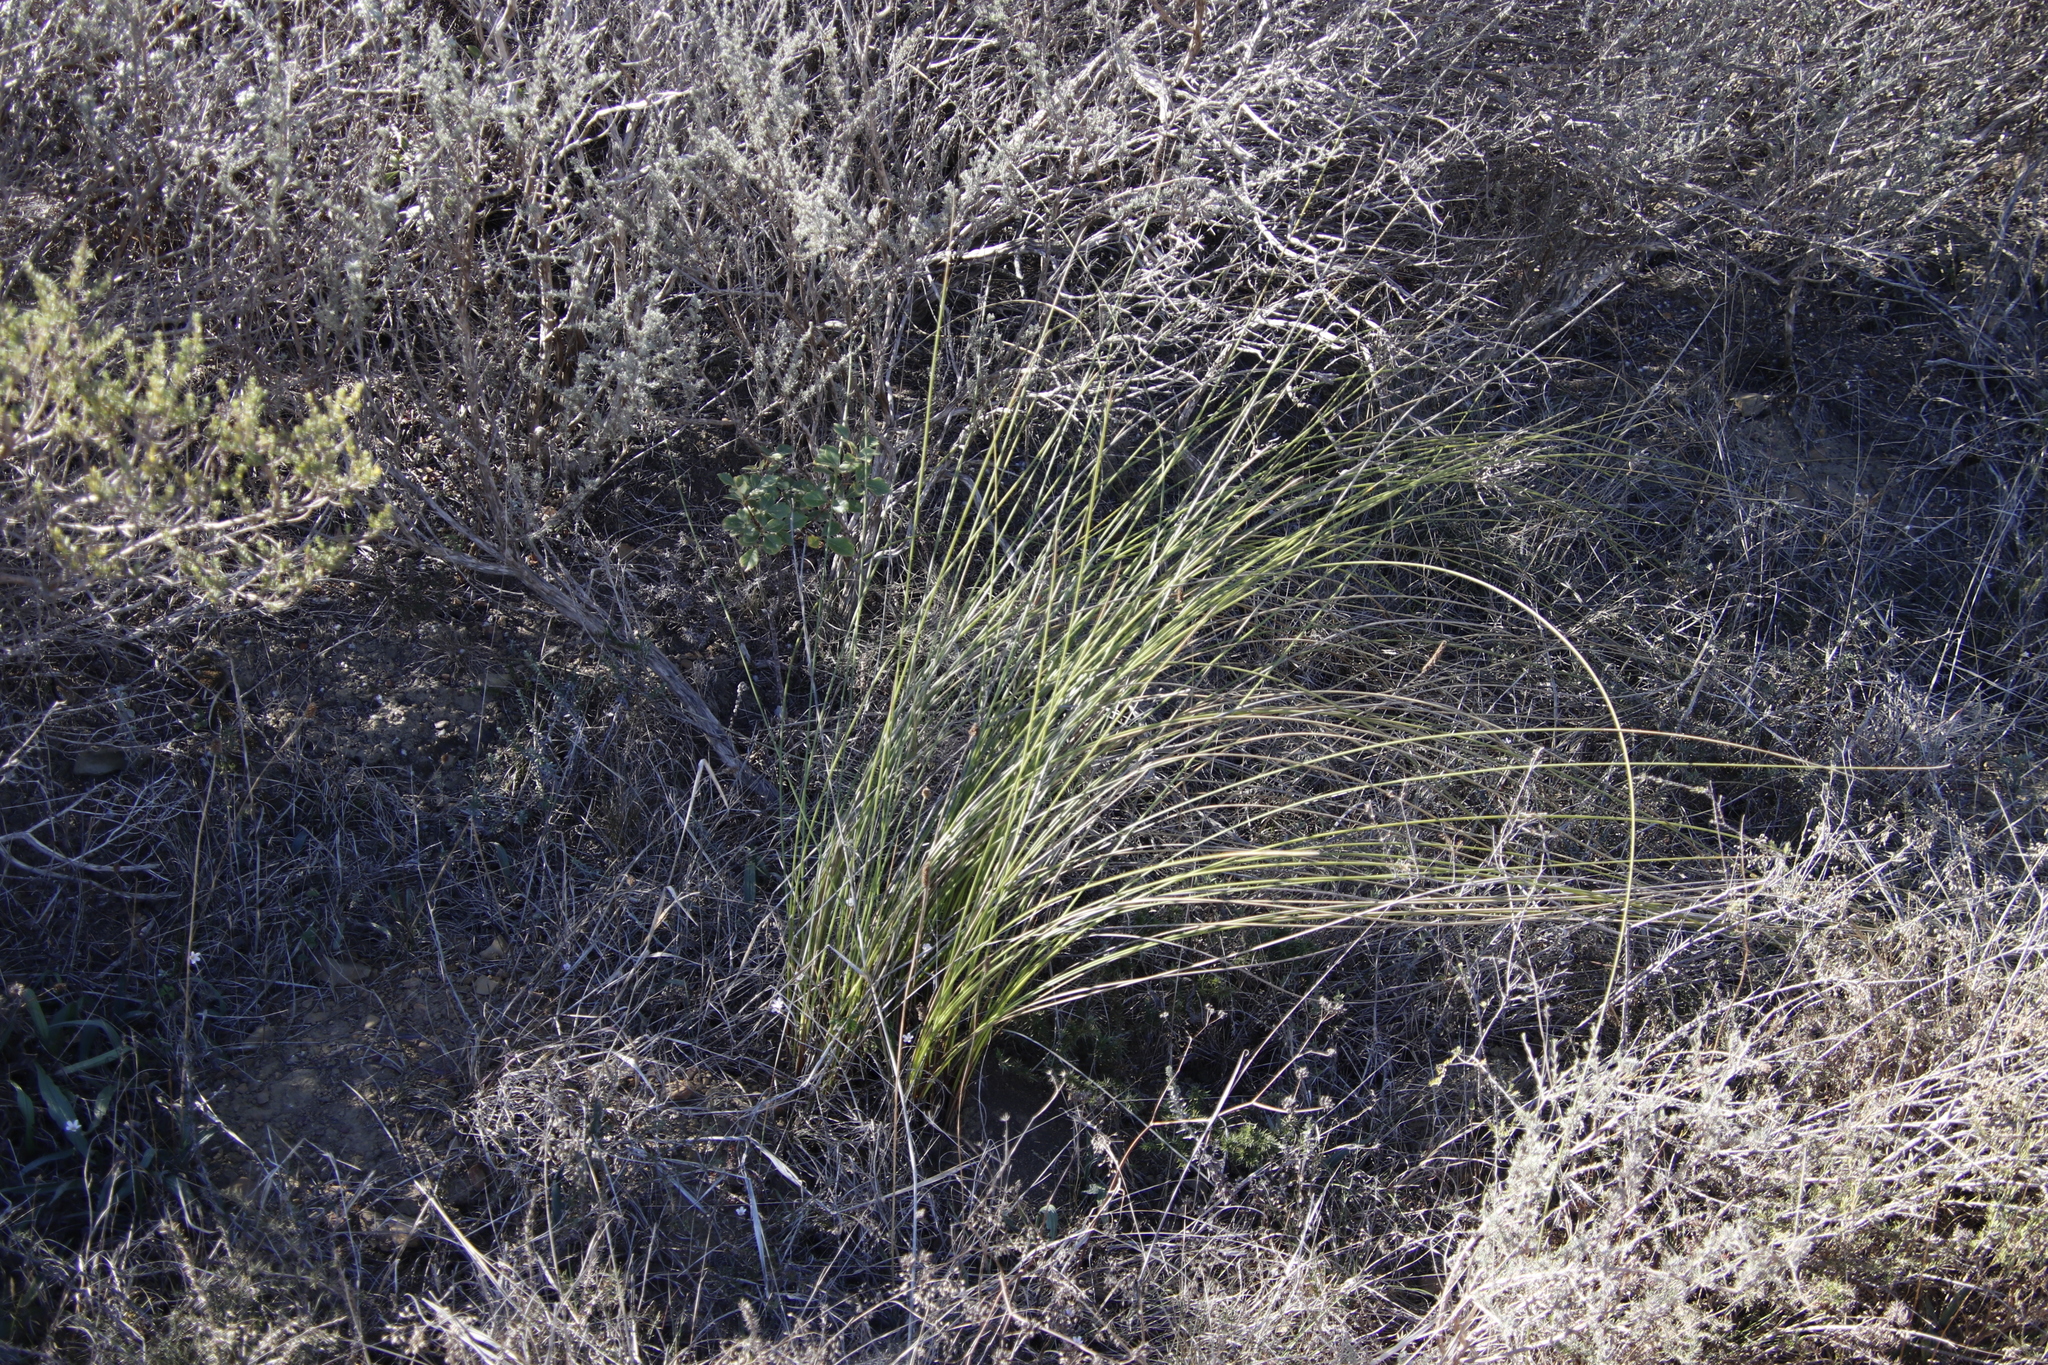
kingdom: Plantae
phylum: Tracheophyta
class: Liliopsida
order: Asparagales
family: Iridaceae
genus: Bobartia
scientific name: Bobartia indica
